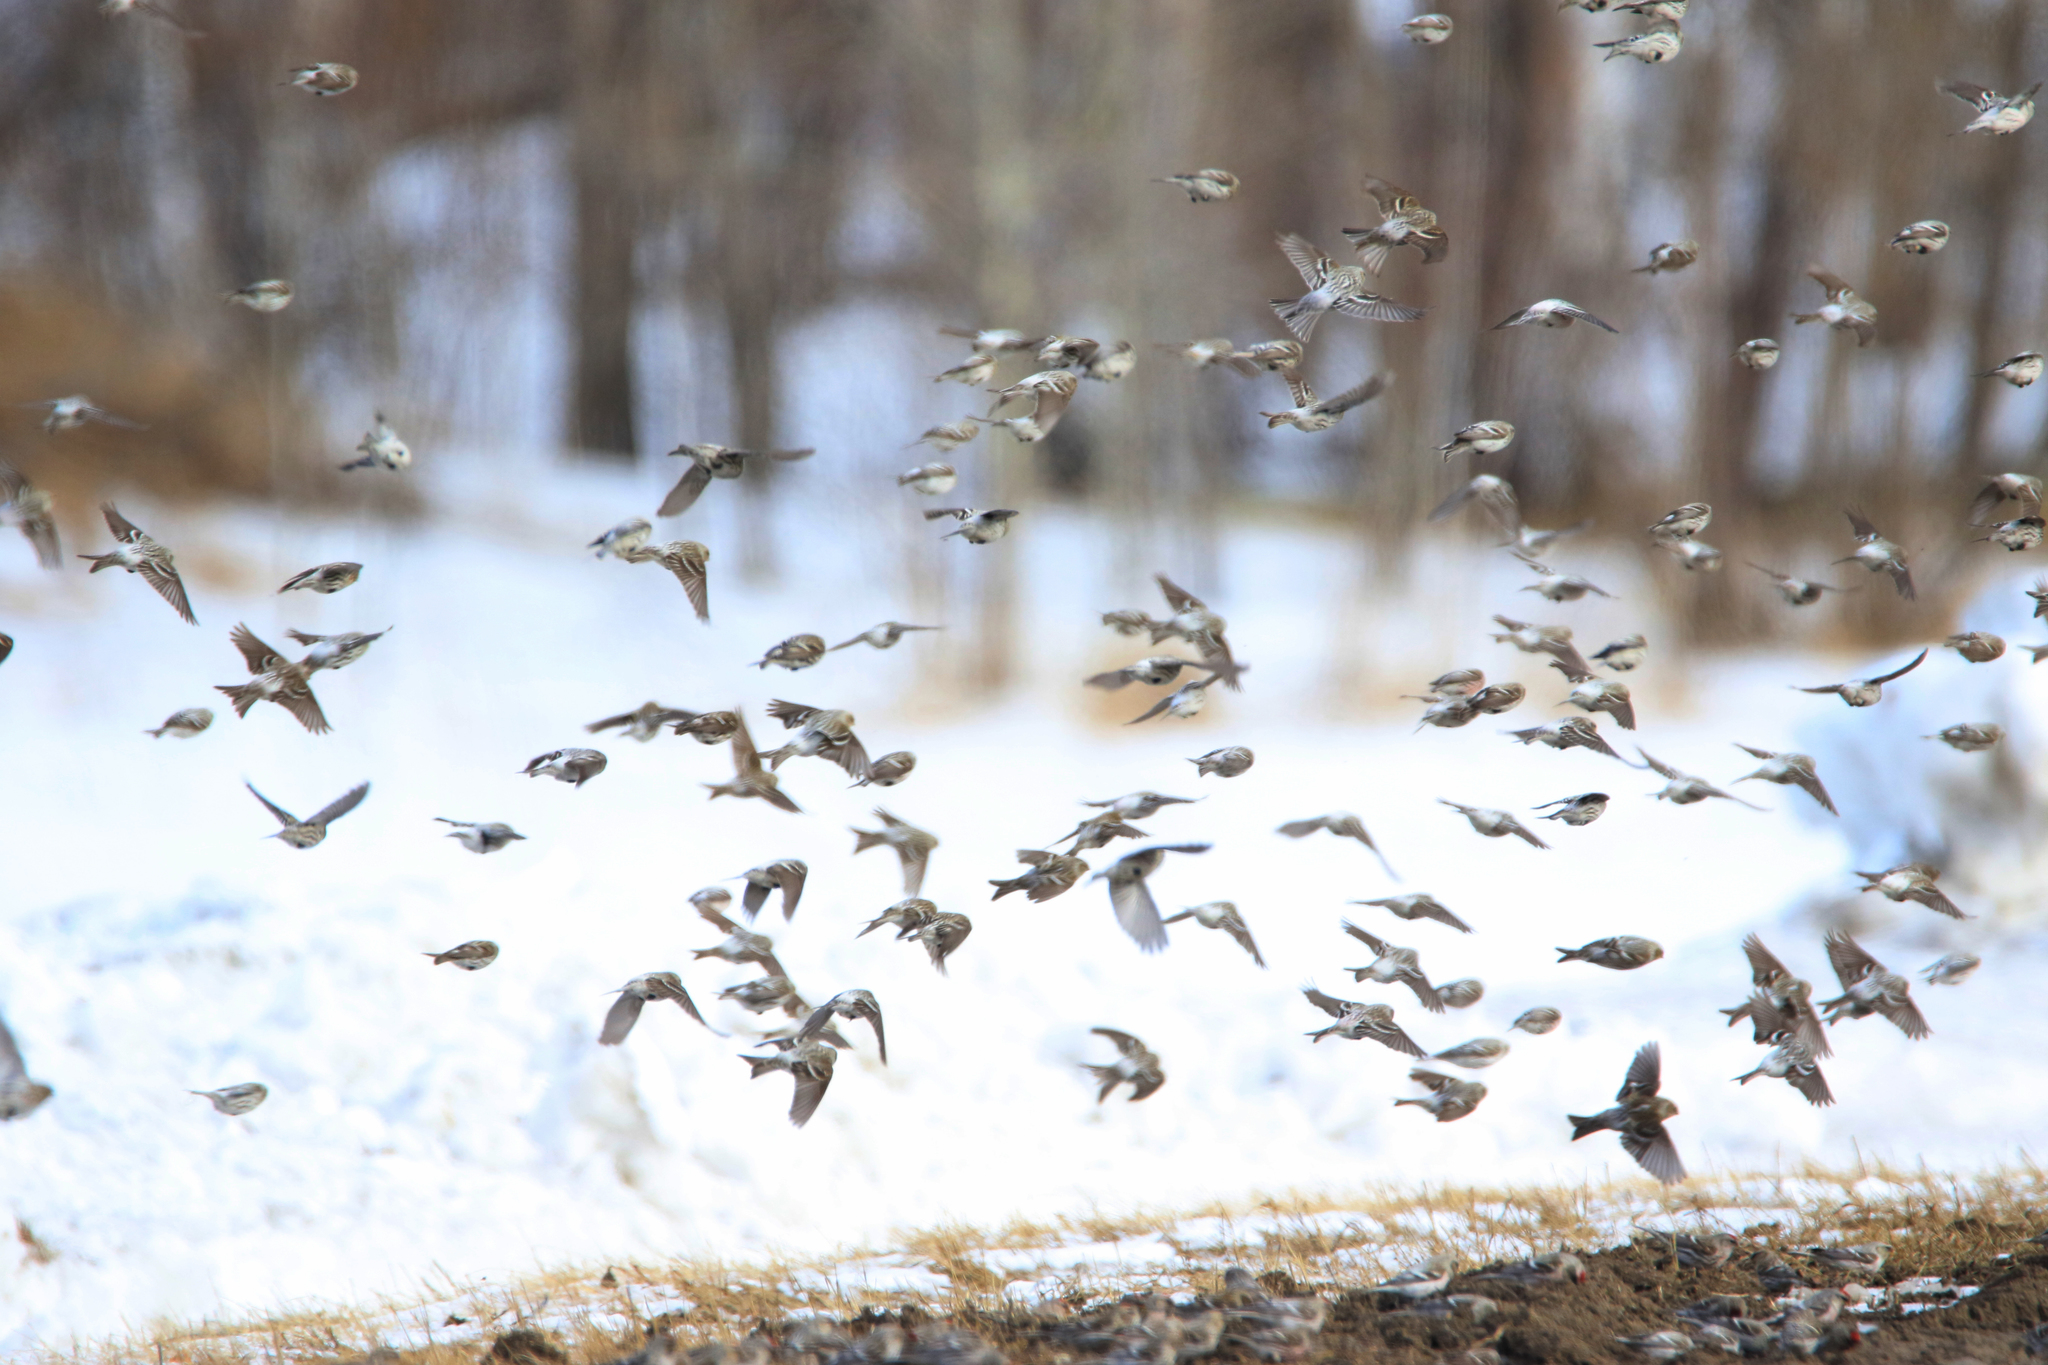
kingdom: Animalia
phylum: Chordata
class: Aves
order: Passeriformes
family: Fringillidae
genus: Acanthis
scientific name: Acanthis flammea
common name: Common redpoll
